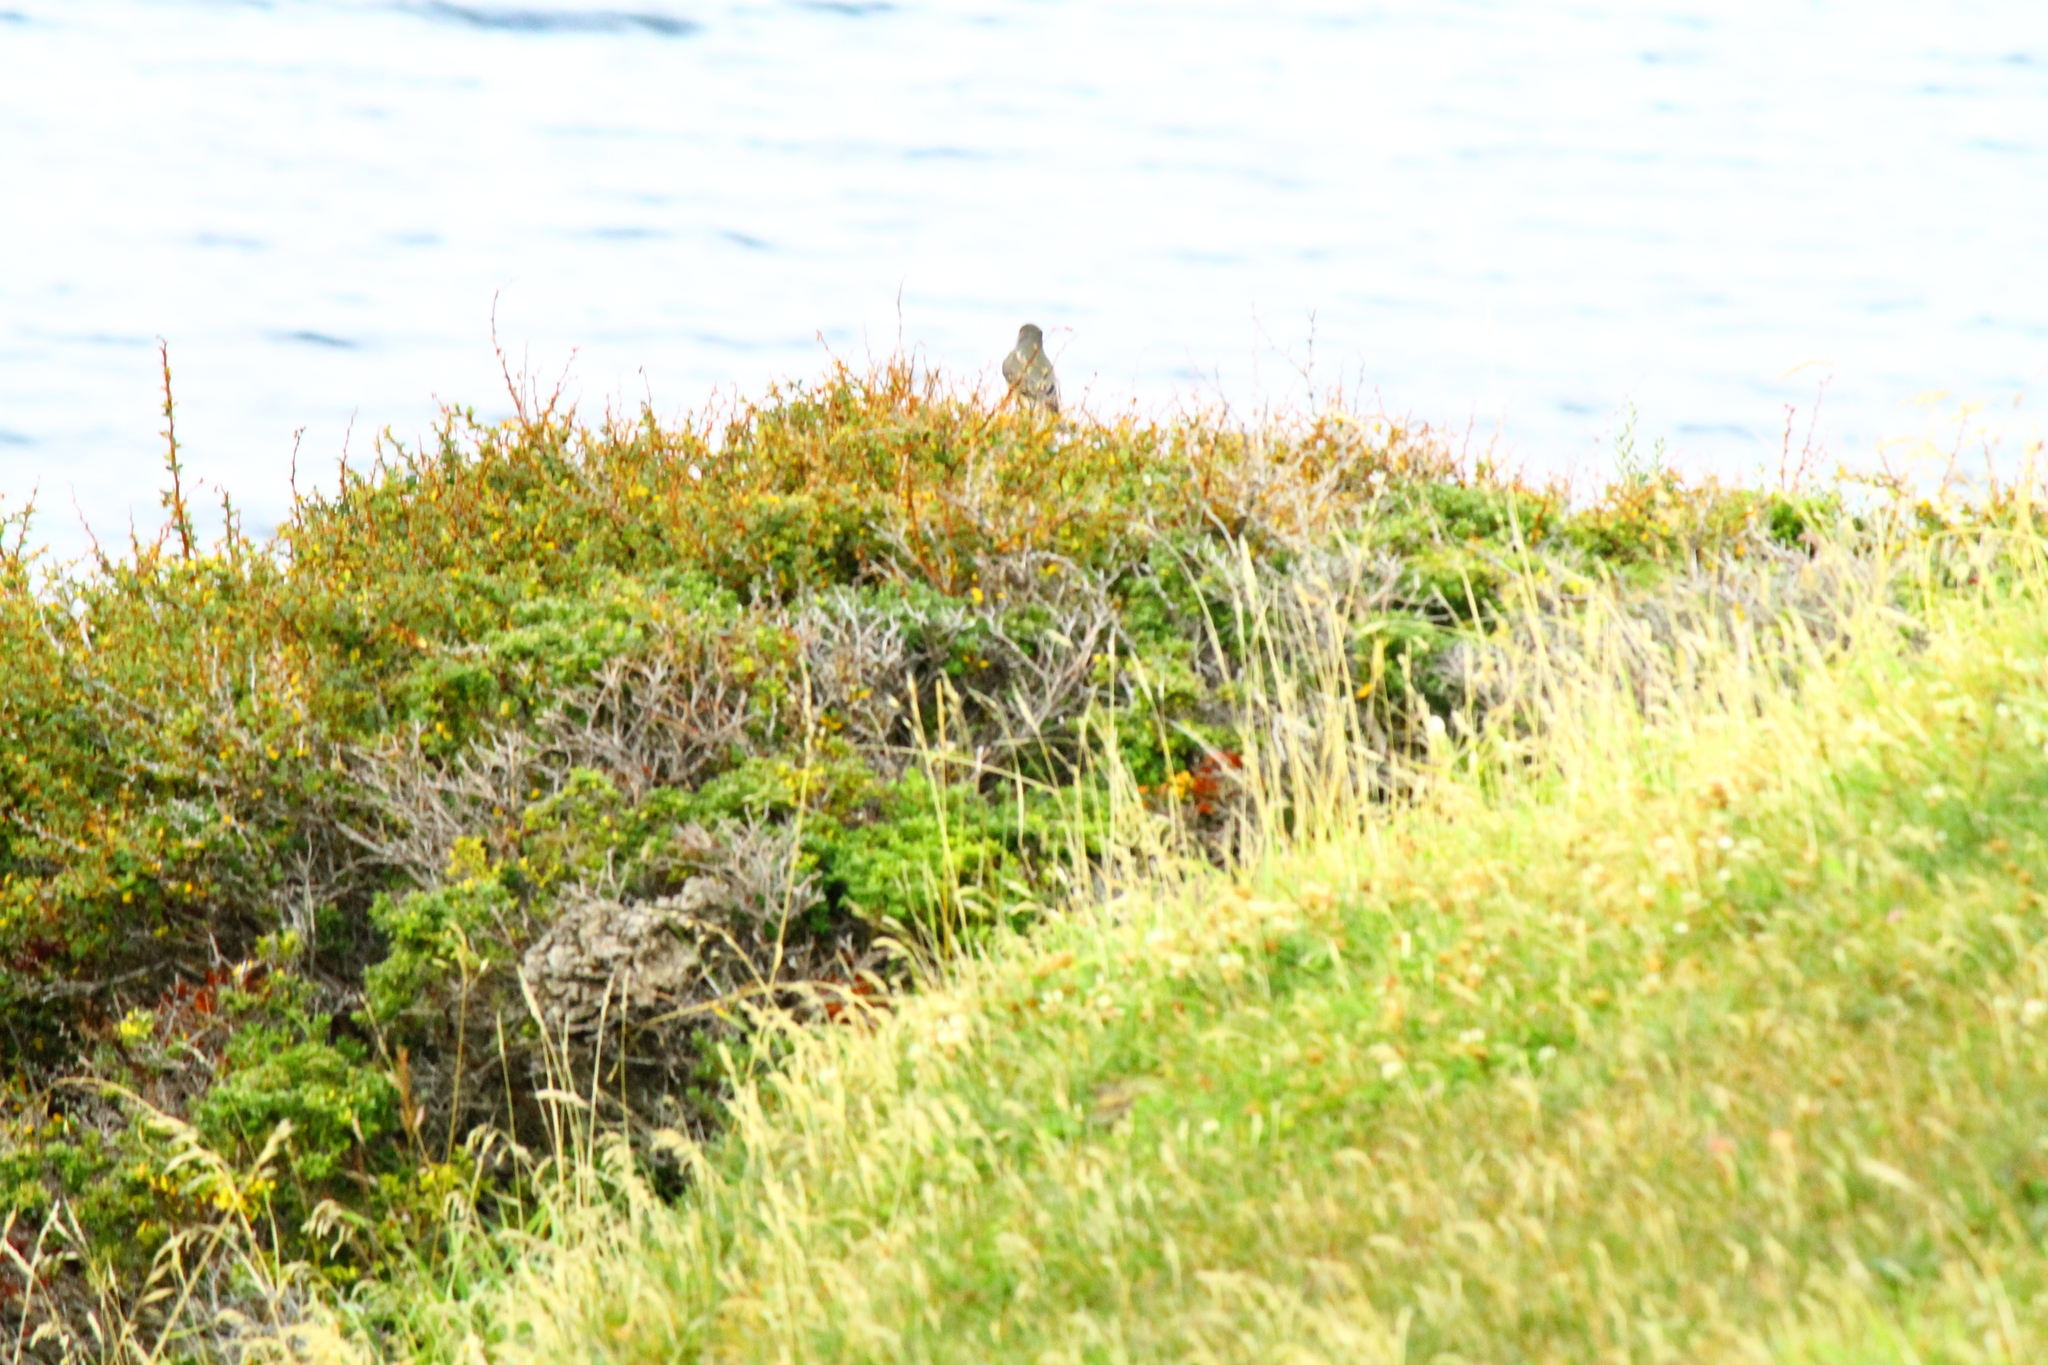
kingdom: Animalia
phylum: Chordata
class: Aves
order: Passeriformes
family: Tyrannidae
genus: Xolmis
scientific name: Xolmis pyrope
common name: Fire-eyed diucon
